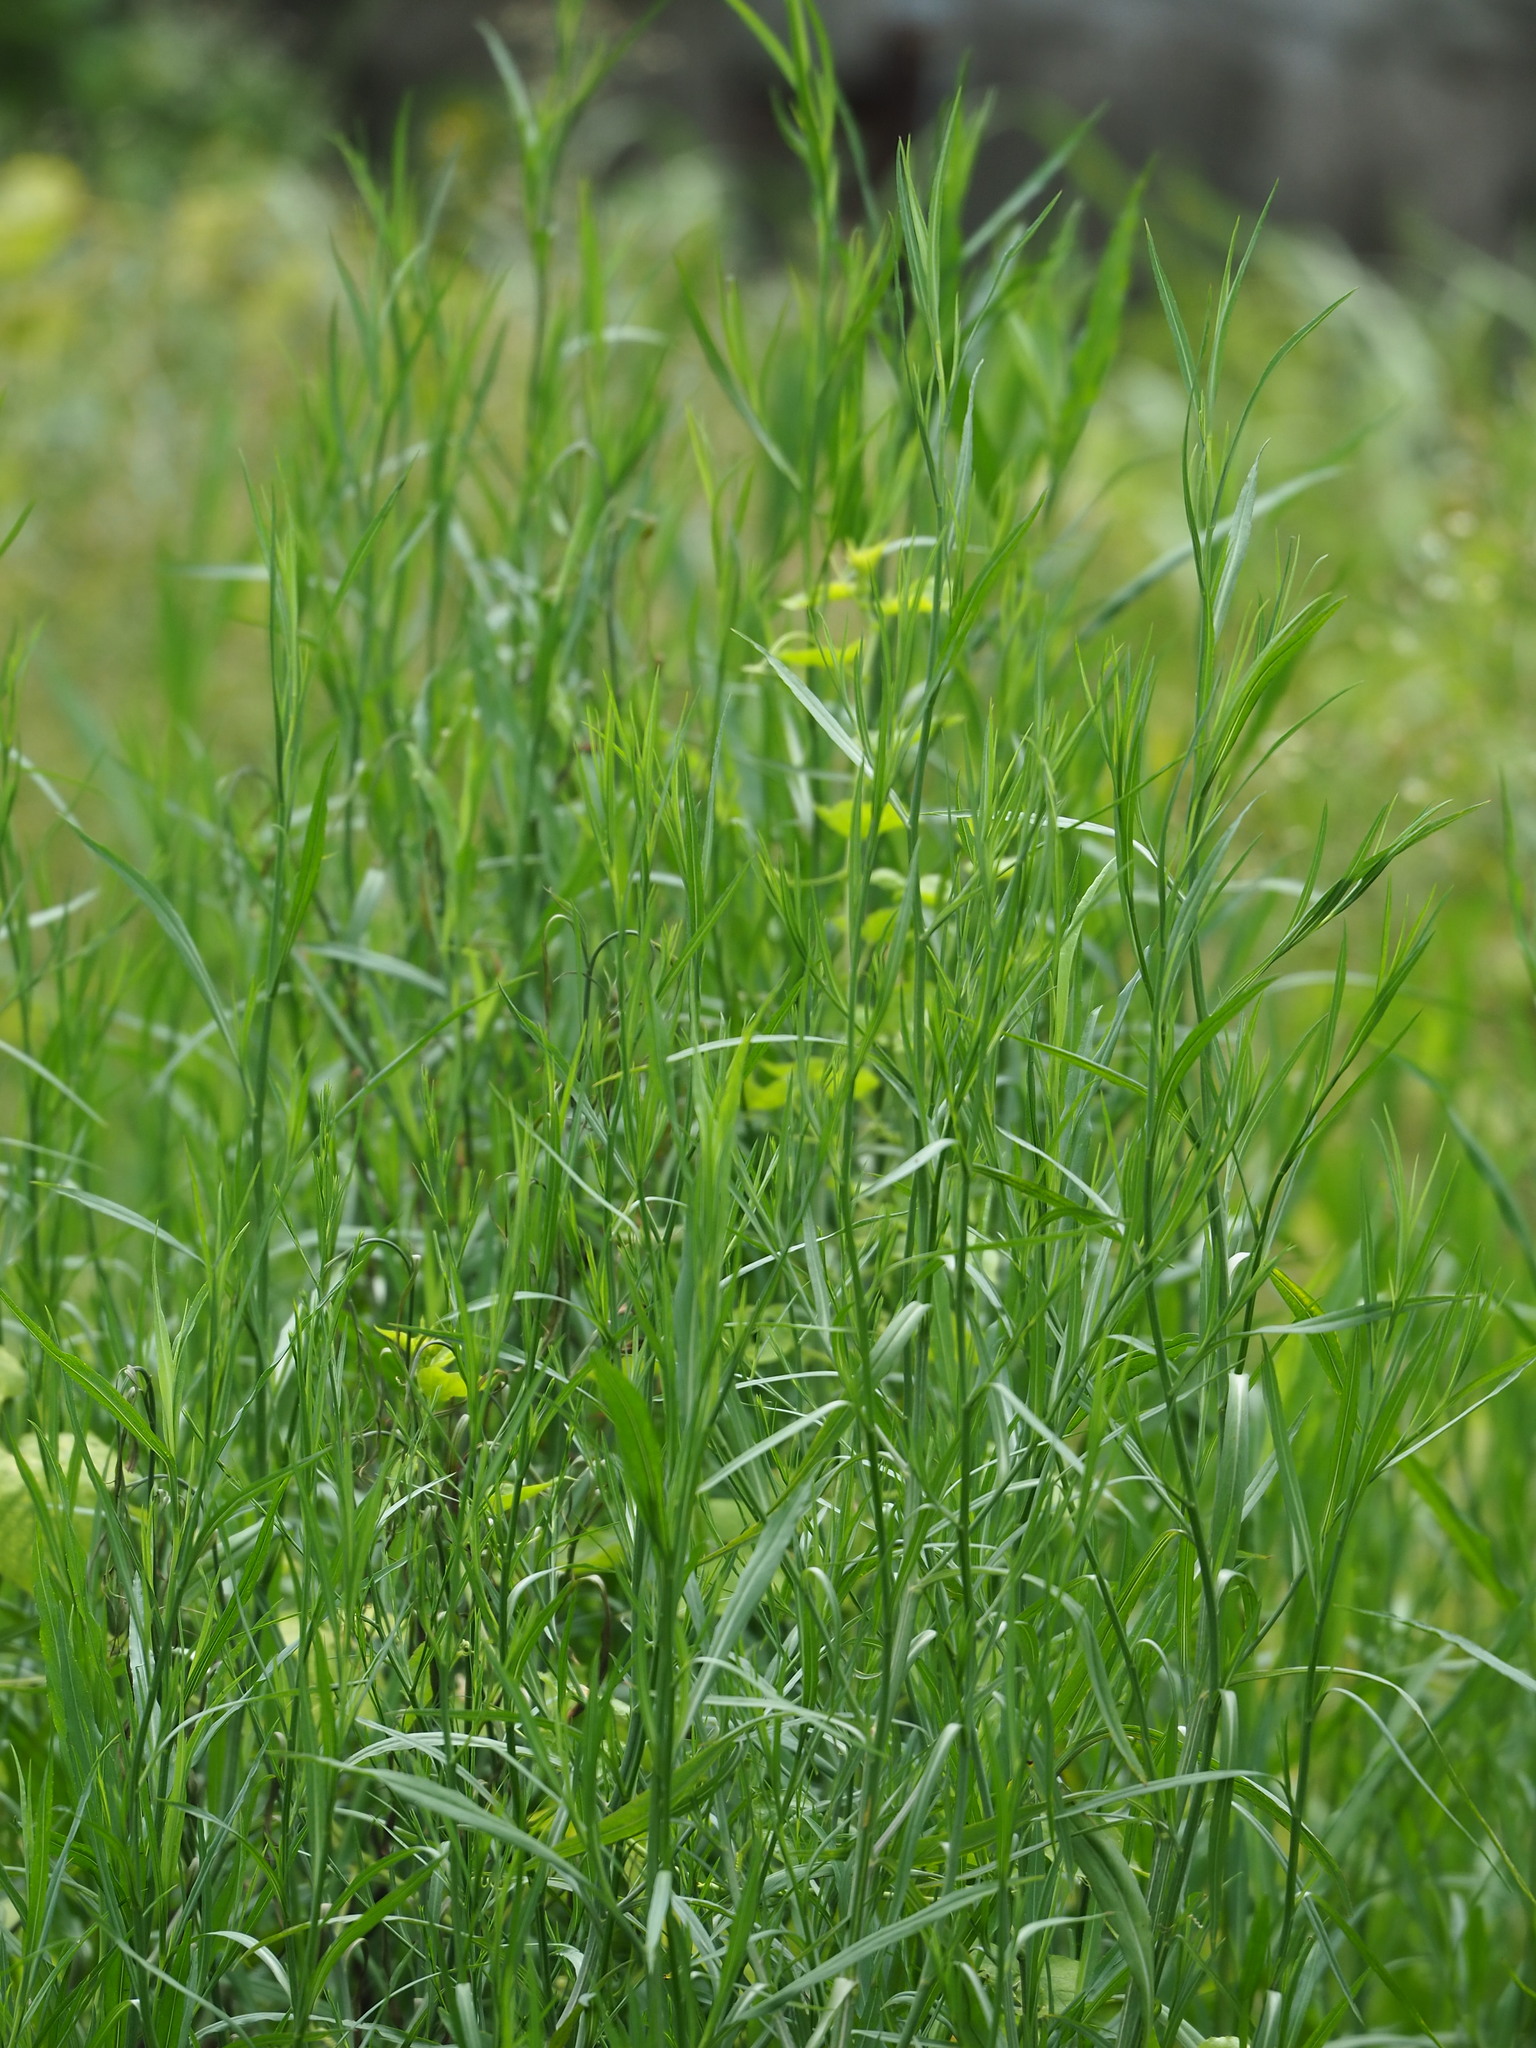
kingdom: Plantae
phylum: Tracheophyta
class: Magnoliopsida
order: Asterales
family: Asteraceae
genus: Symphyotrichum
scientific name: Symphyotrichum subulatum
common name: Annual saltmarsh aster
